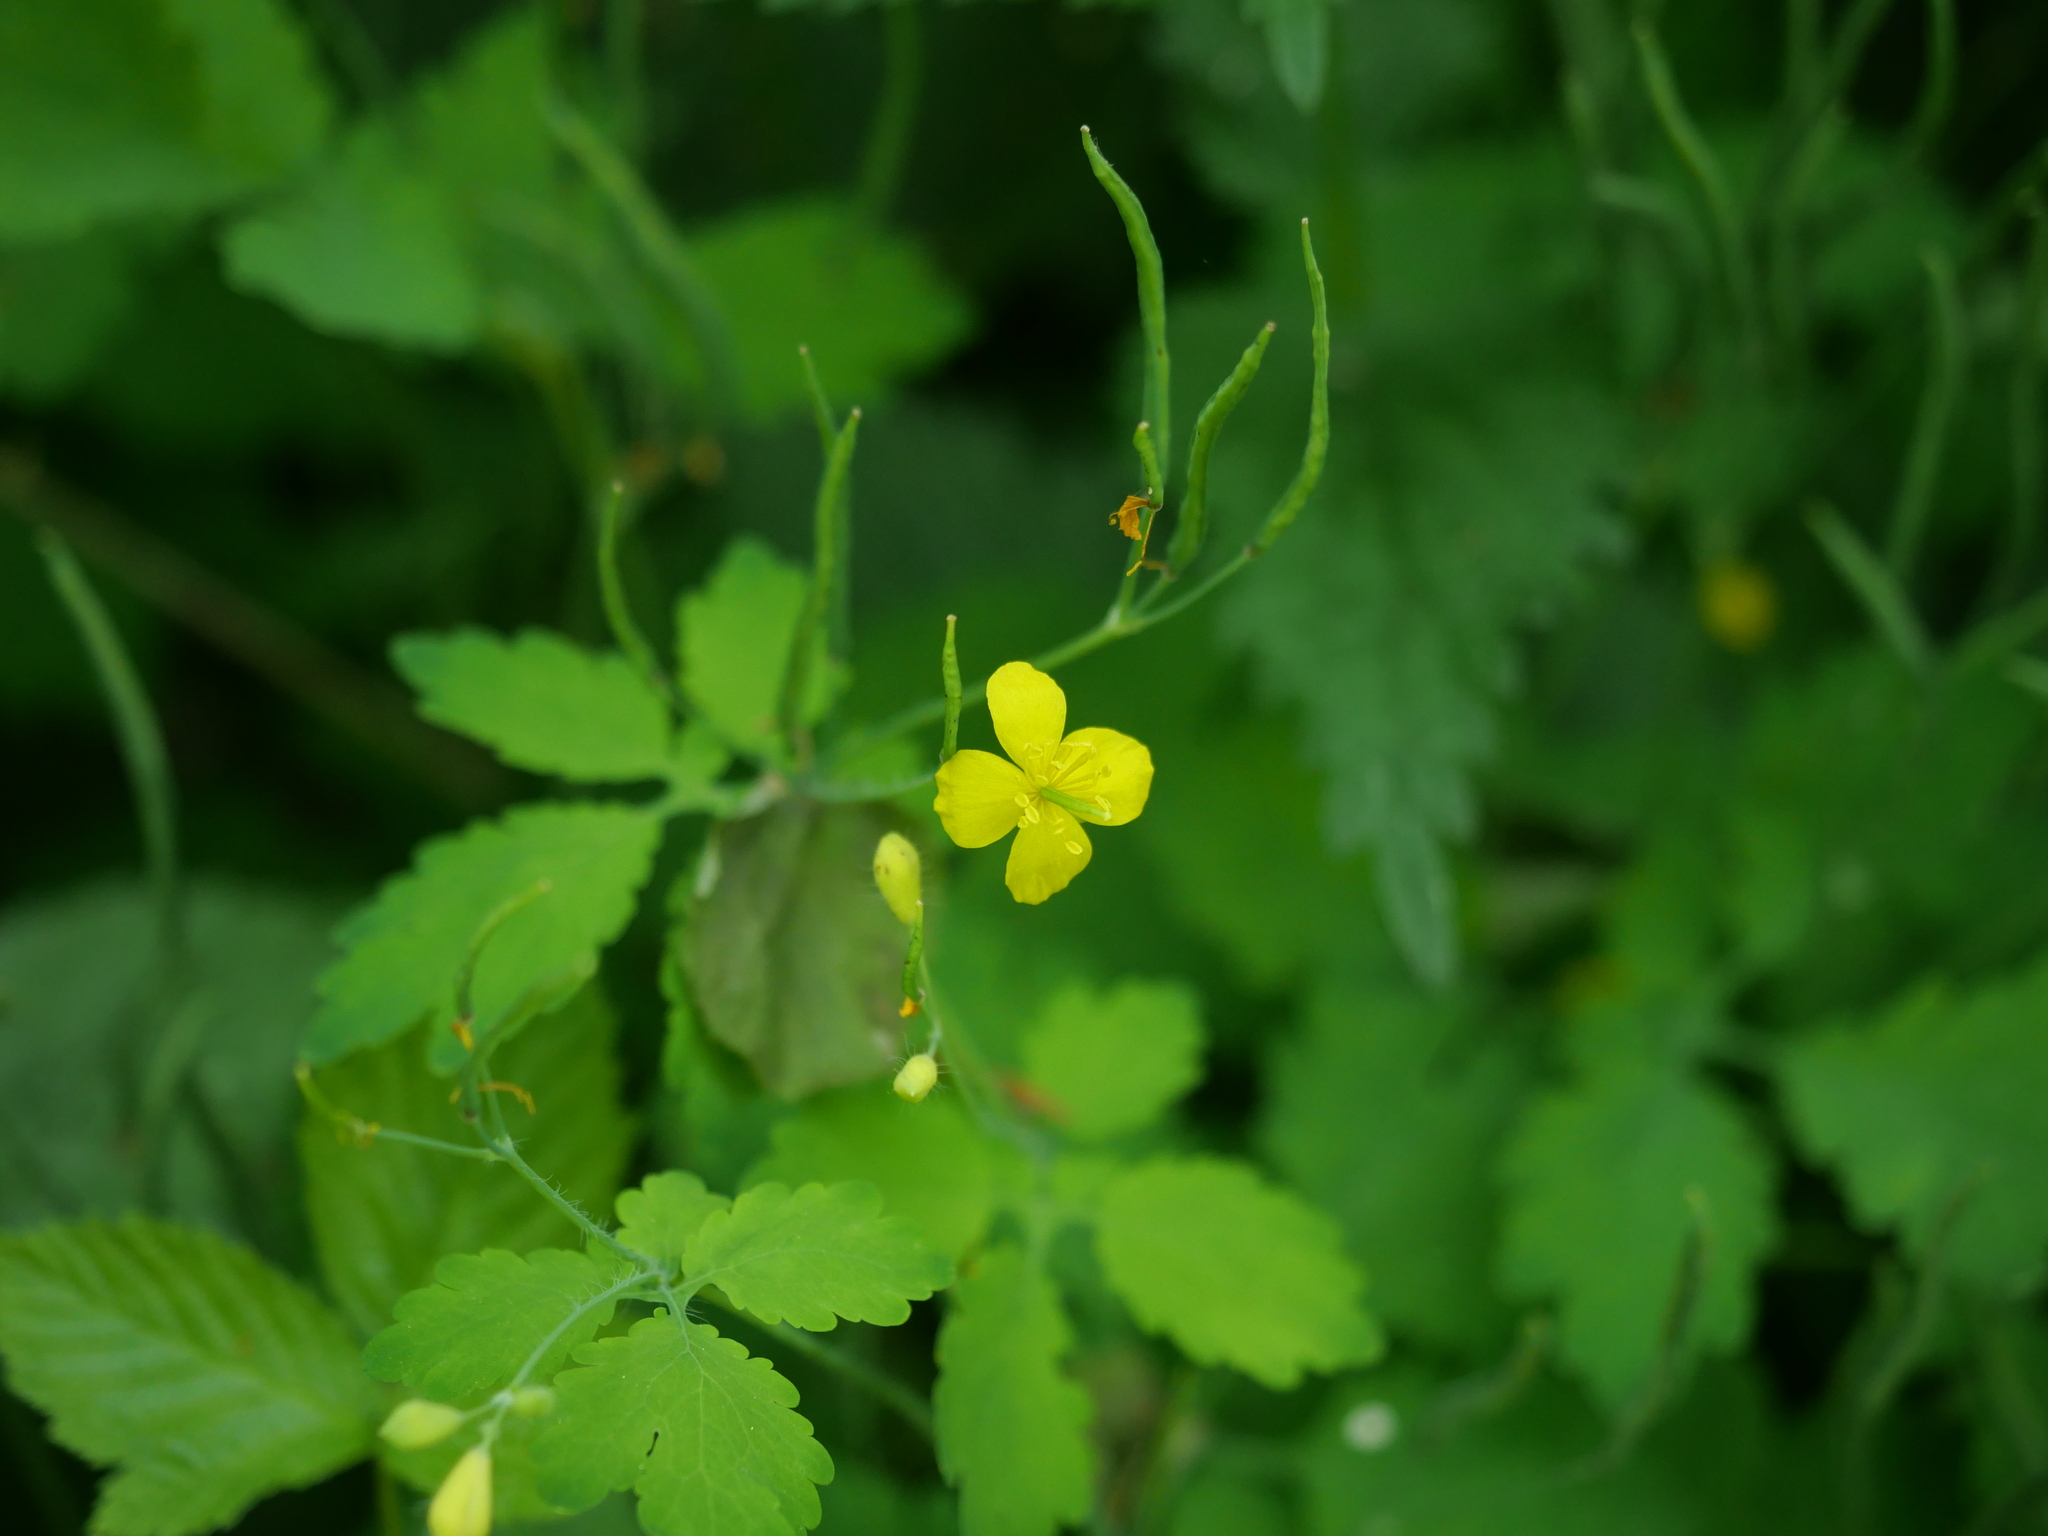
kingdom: Plantae
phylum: Tracheophyta
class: Magnoliopsida
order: Ranunculales
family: Papaveraceae
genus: Chelidonium
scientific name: Chelidonium majus
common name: Greater celandine
